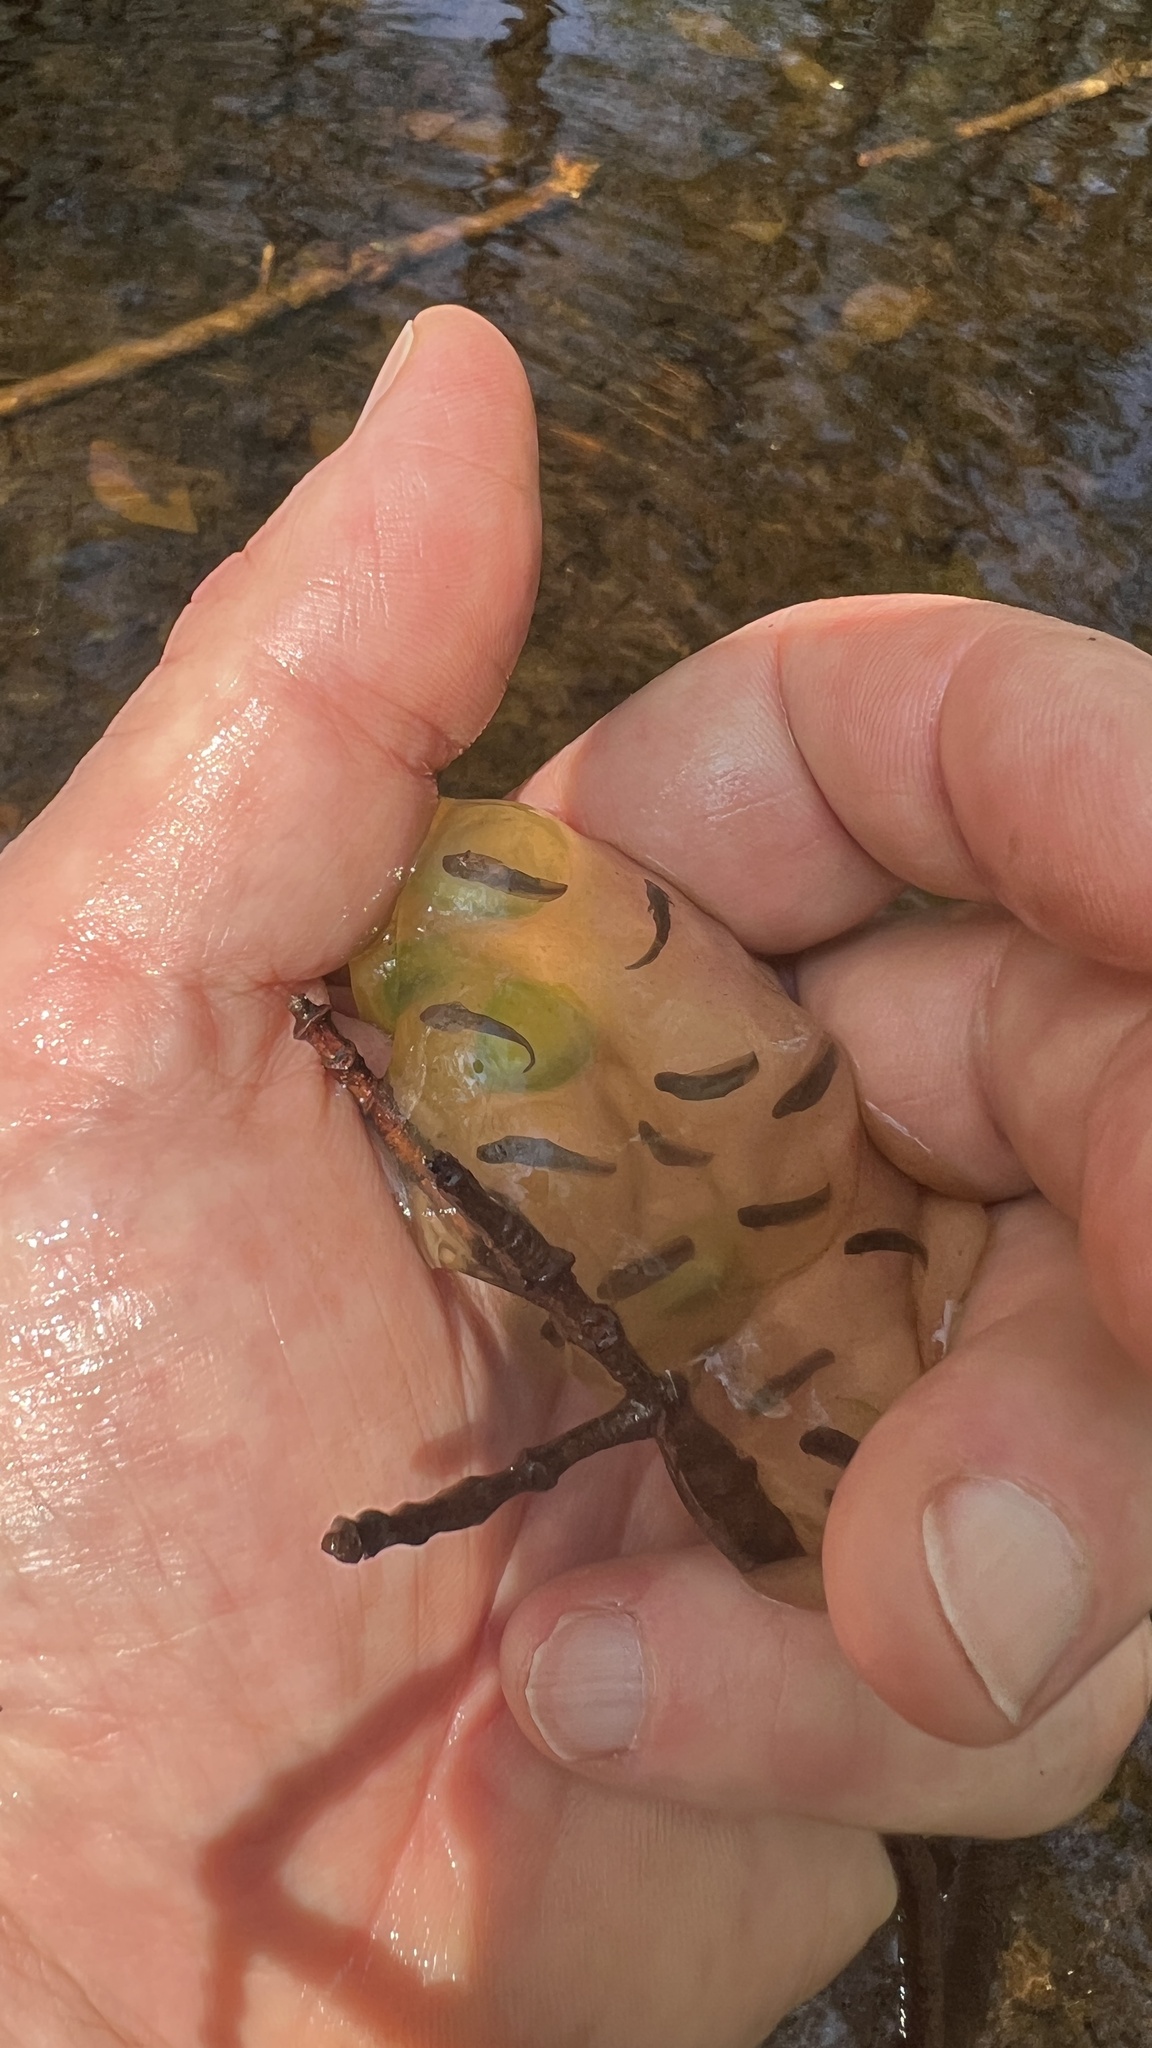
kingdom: Animalia
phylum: Chordata
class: Amphibia
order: Caudata
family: Ambystomatidae
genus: Ambystoma
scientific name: Ambystoma jeffersonianum
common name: Jefferson salamander
